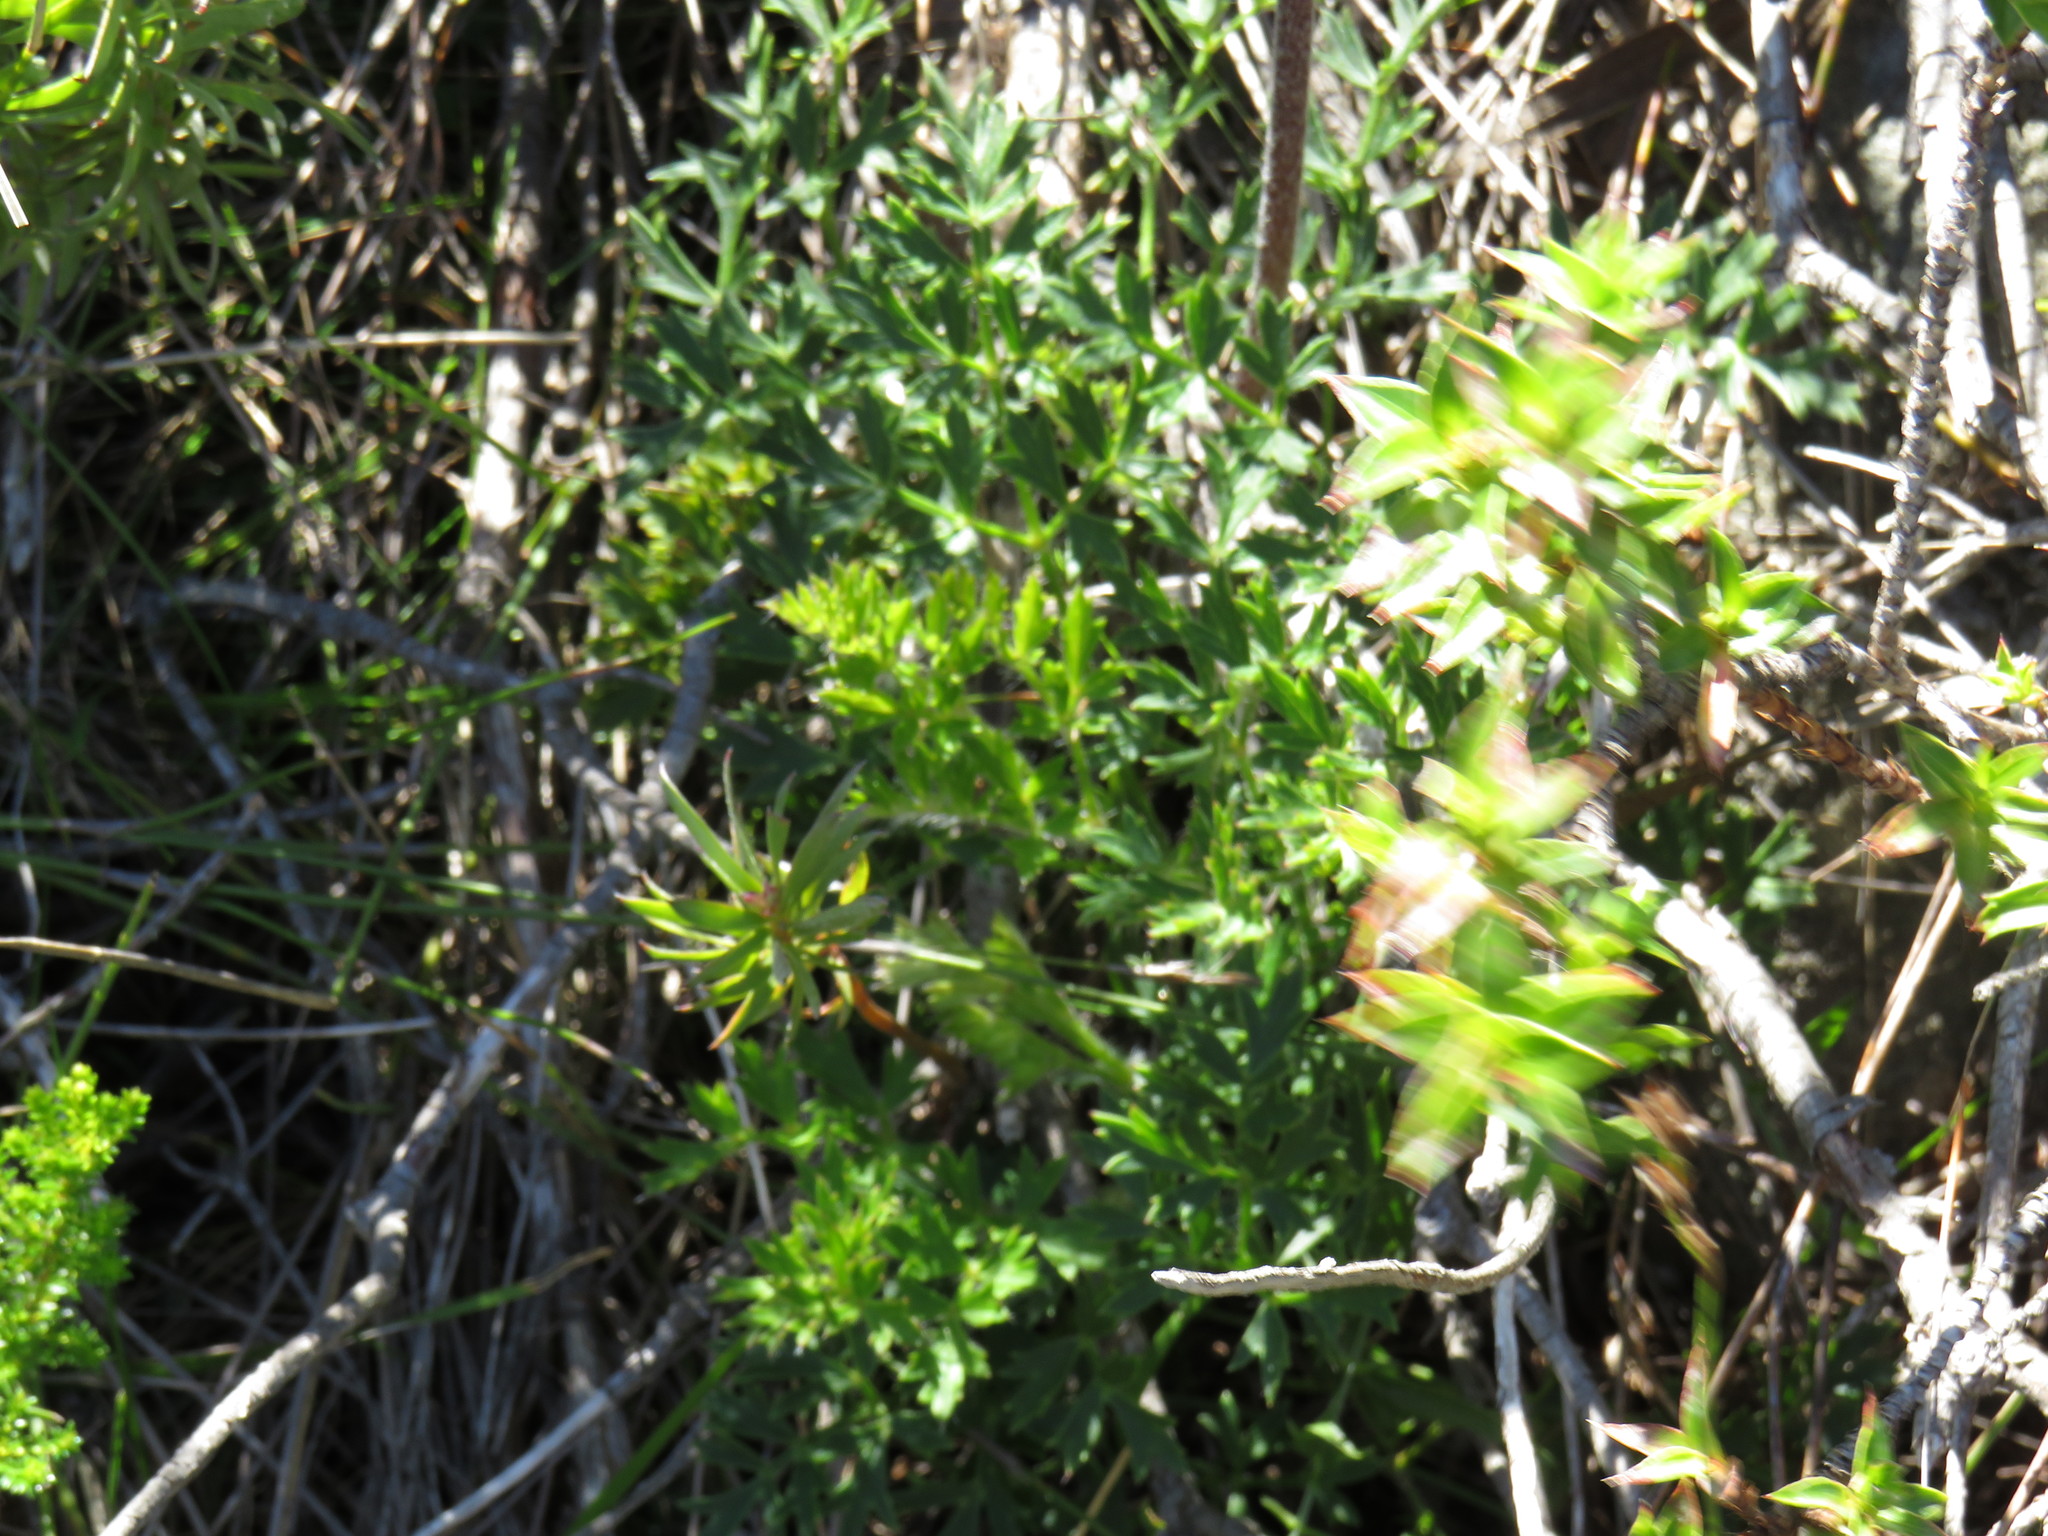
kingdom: Plantae
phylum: Tracheophyta
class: Magnoliopsida
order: Ranunculales
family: Ranunculaceae
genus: Knowltonia
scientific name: Knowltonia tenuifolia
